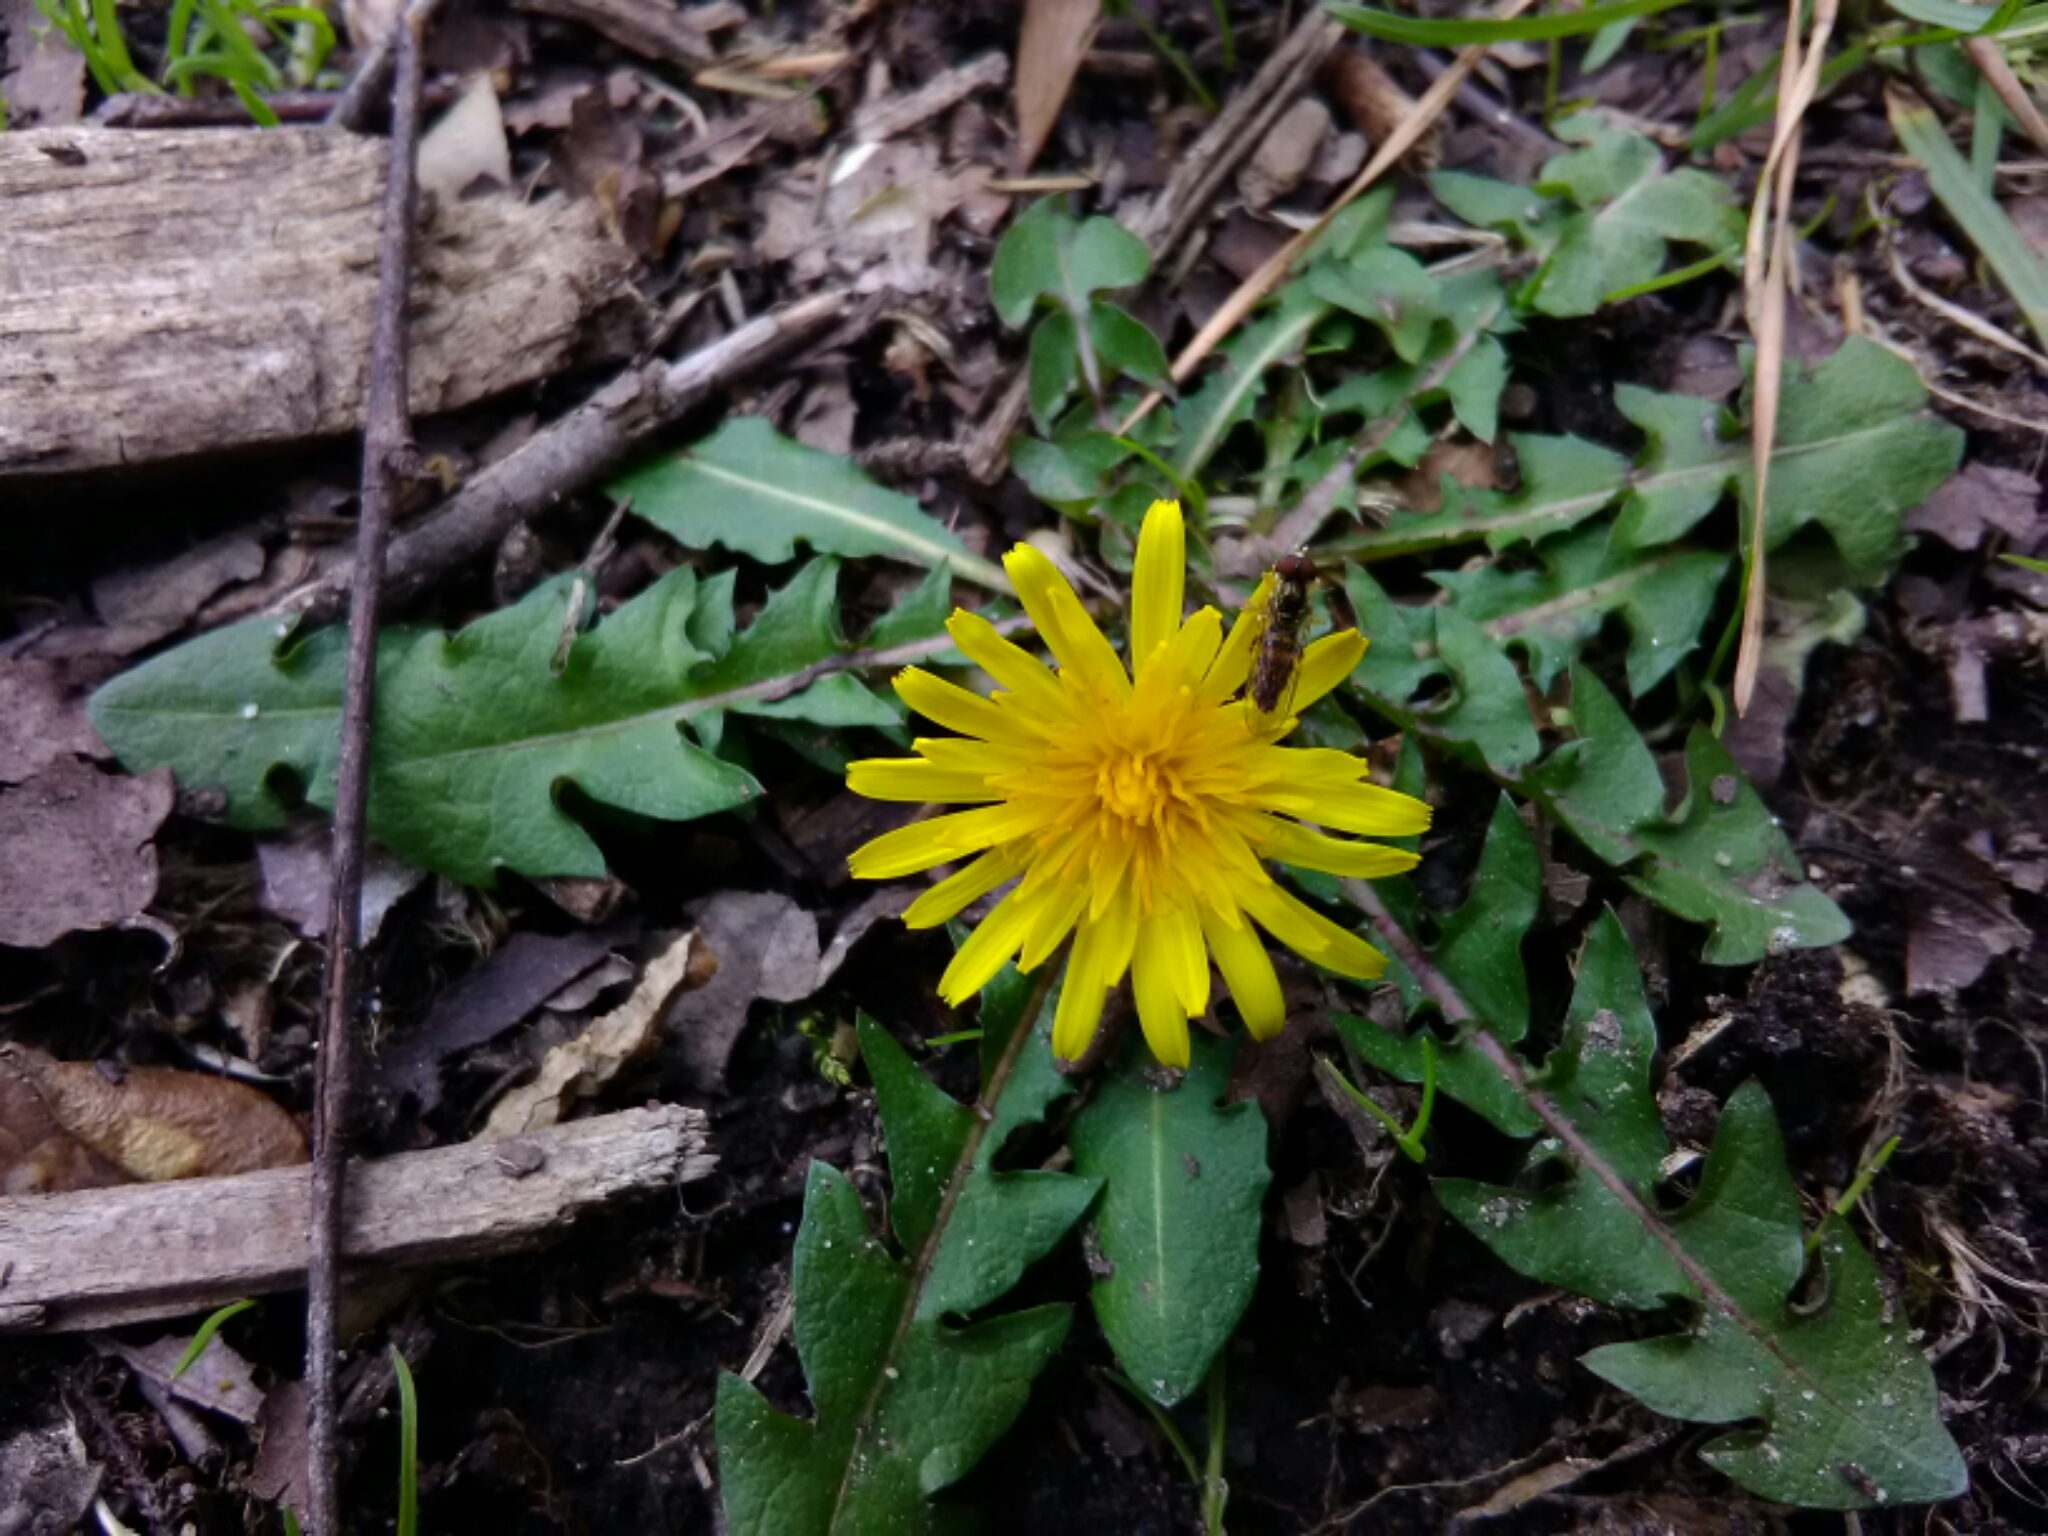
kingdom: Animalia
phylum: Arthropoda
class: Insecta
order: Diptera
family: Syrphidae
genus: Toxomerus
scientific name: Toxomerus geminatus
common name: Eastern calligrapher
